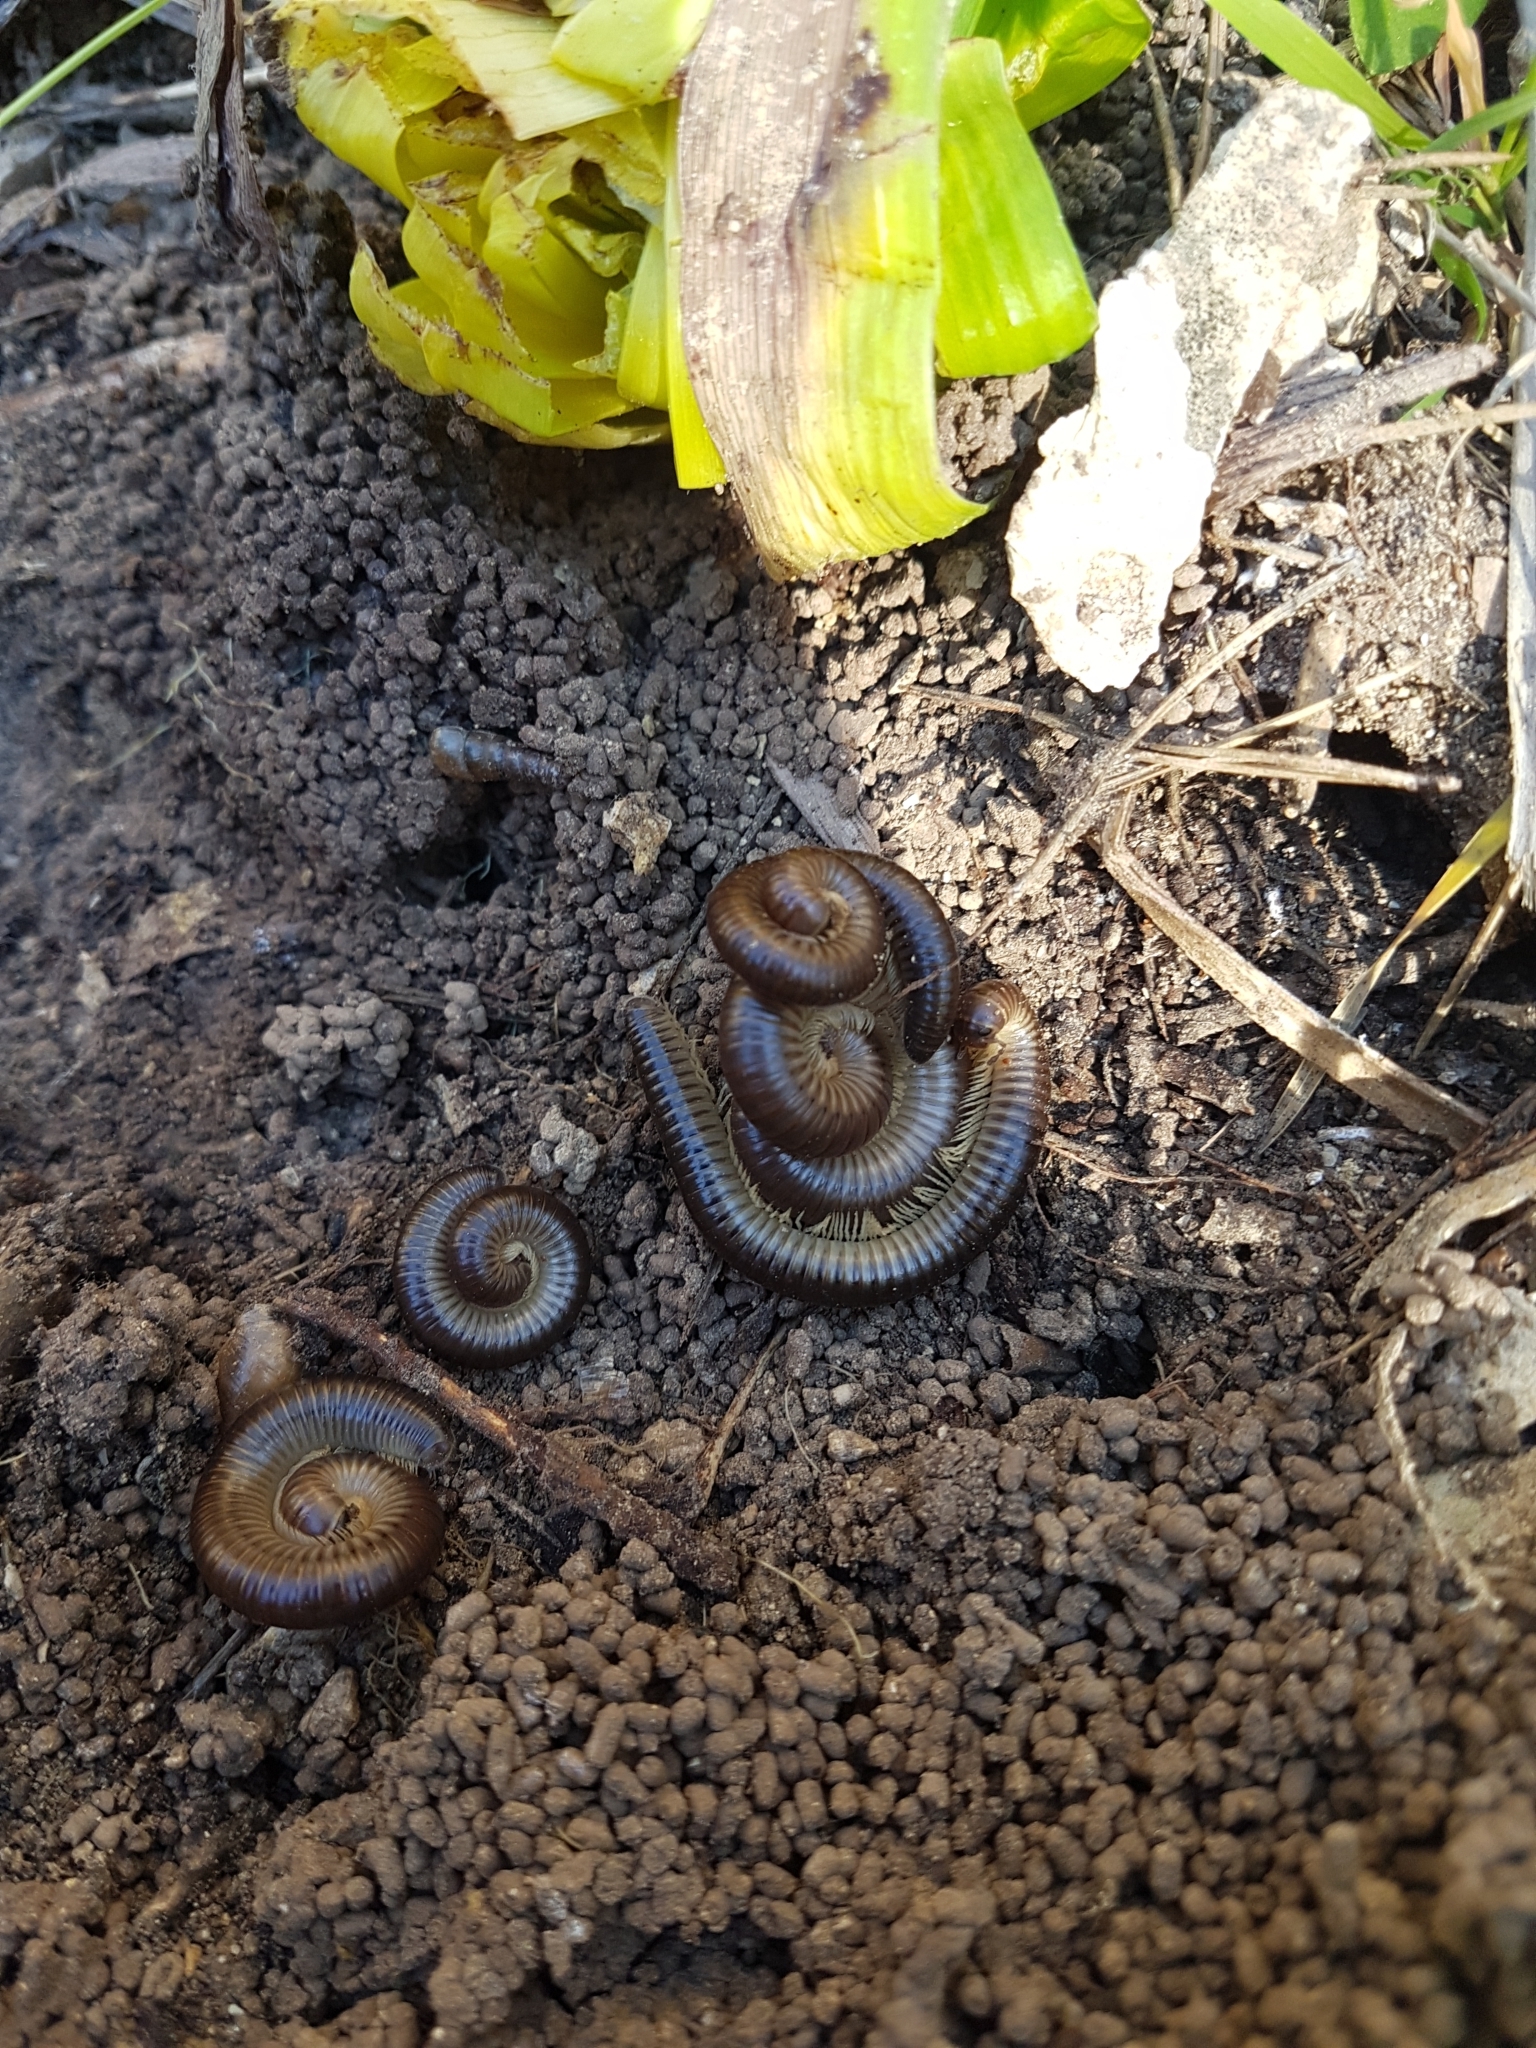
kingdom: Animalia
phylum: Arthropoda
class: Diplopoda
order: Julida
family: Julidae
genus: Pachyiulus
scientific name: Pachyiulus flavipes
